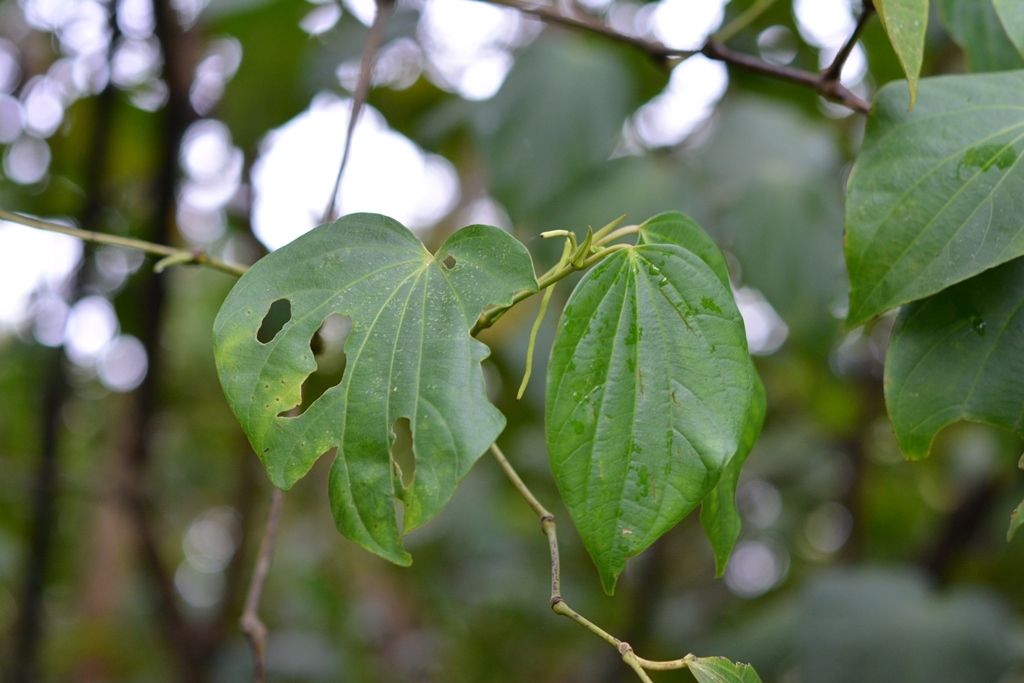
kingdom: Plantae
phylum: Tracheophyta
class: Magnoliopsida
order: Piperales
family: Piperaceae
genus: Piper
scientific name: Piper maxonii
